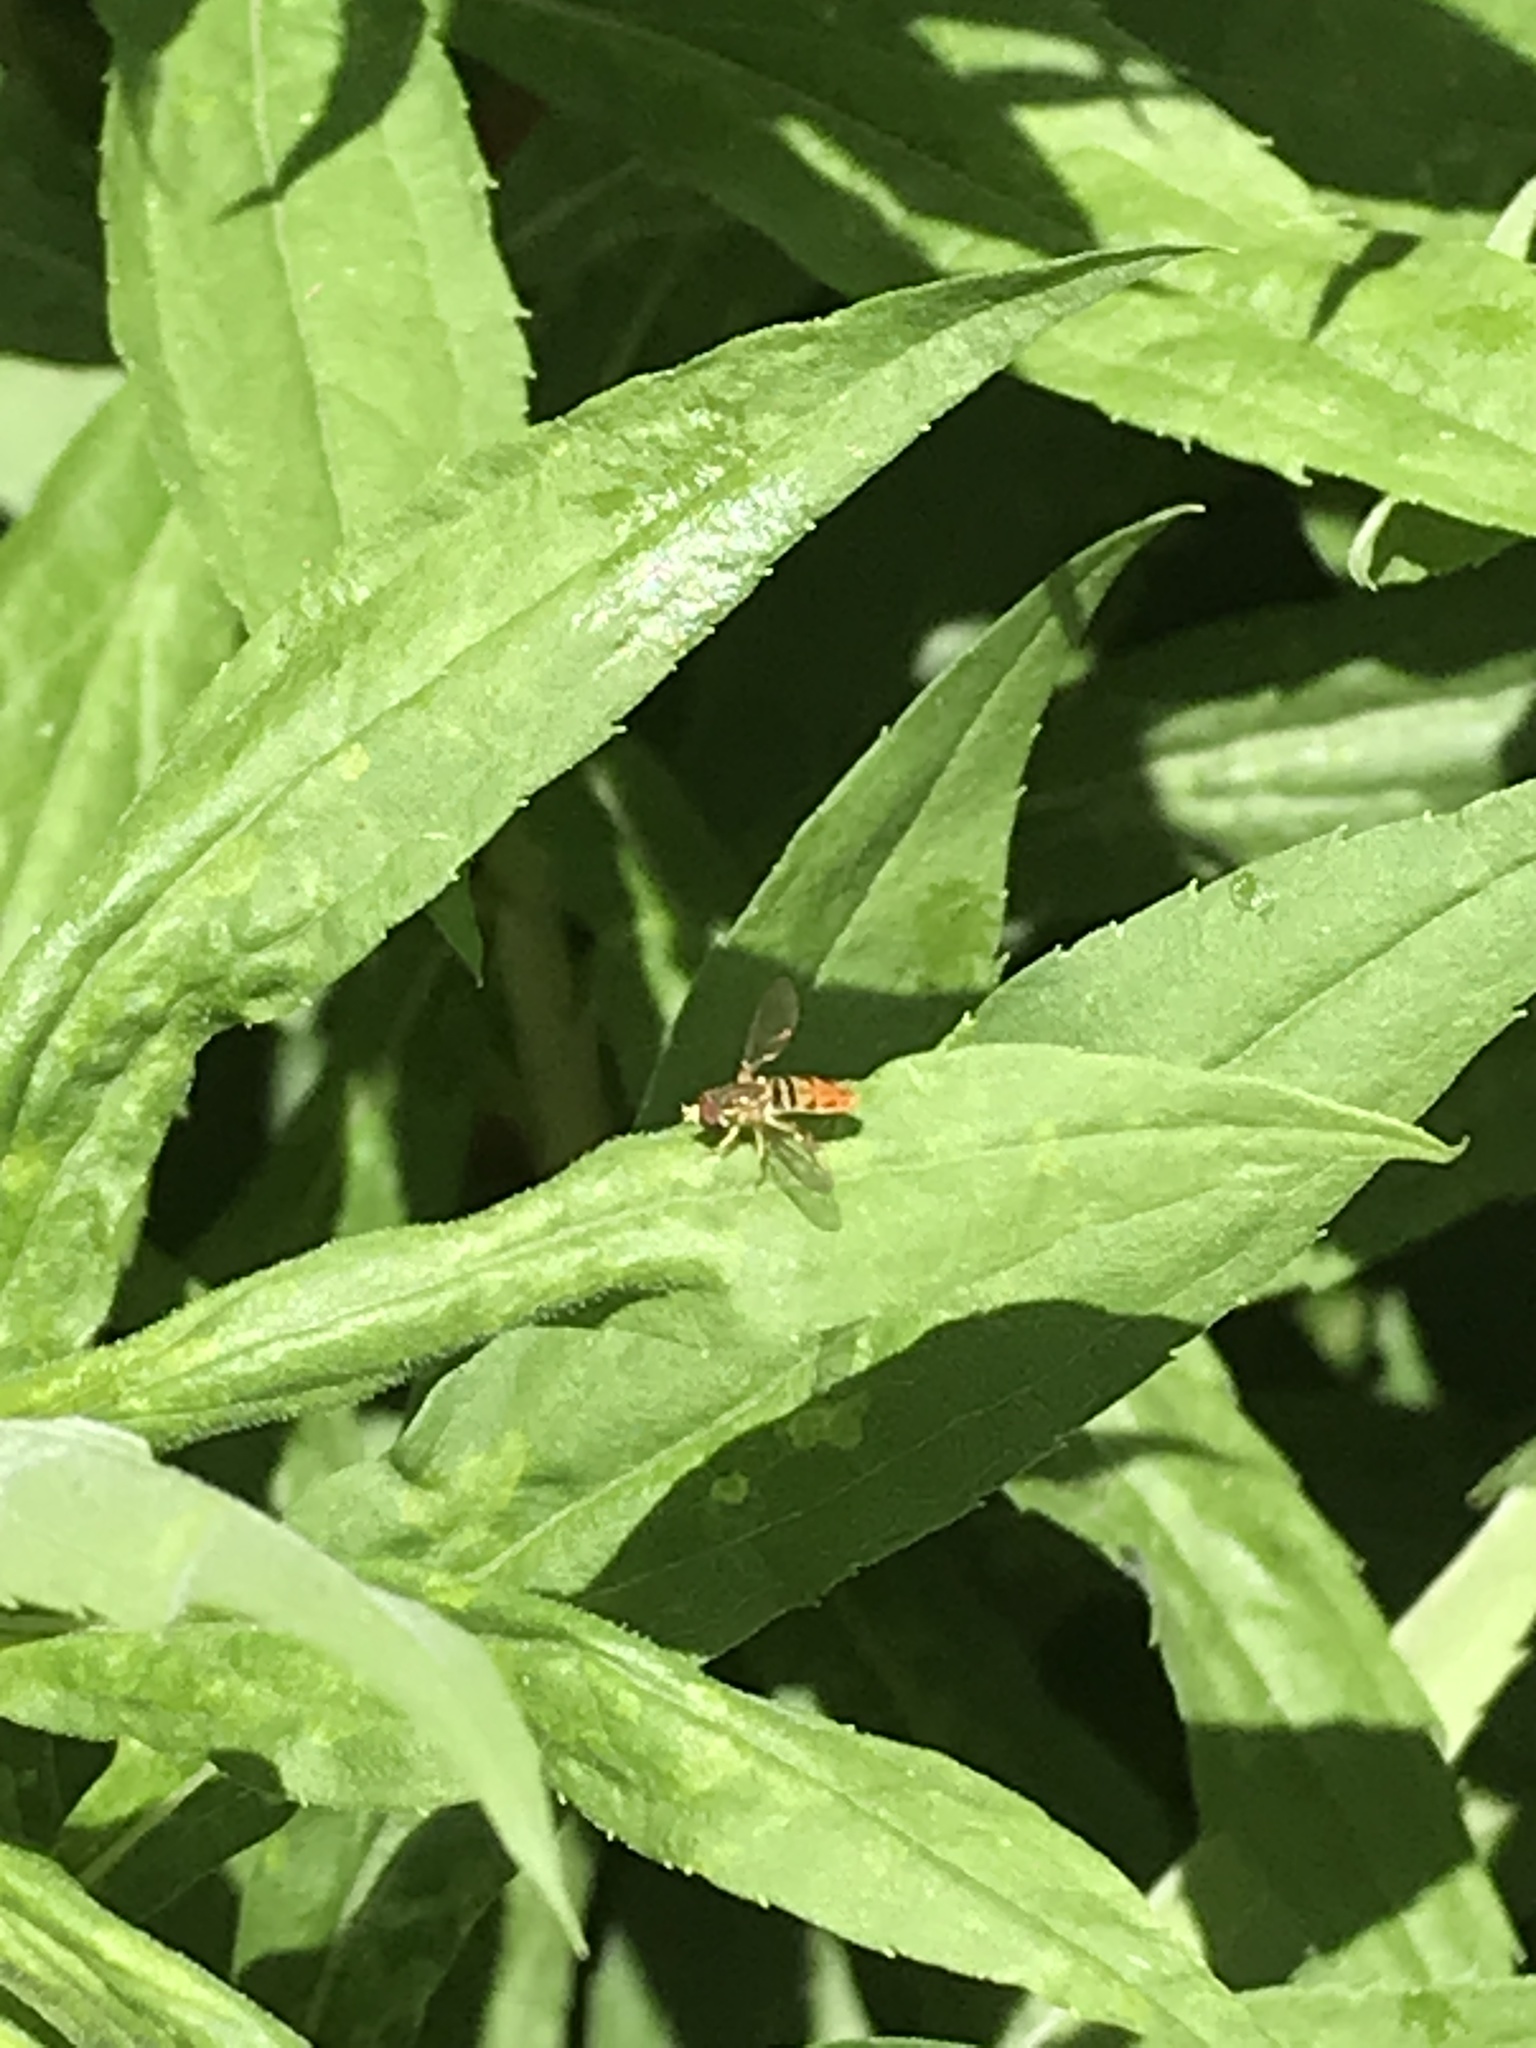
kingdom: Animalia
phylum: Arthropoda
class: Insecta
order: Diptera
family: Syrphidae
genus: Toxomerus
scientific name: Toxomerus marginatus
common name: Syrphid fly
